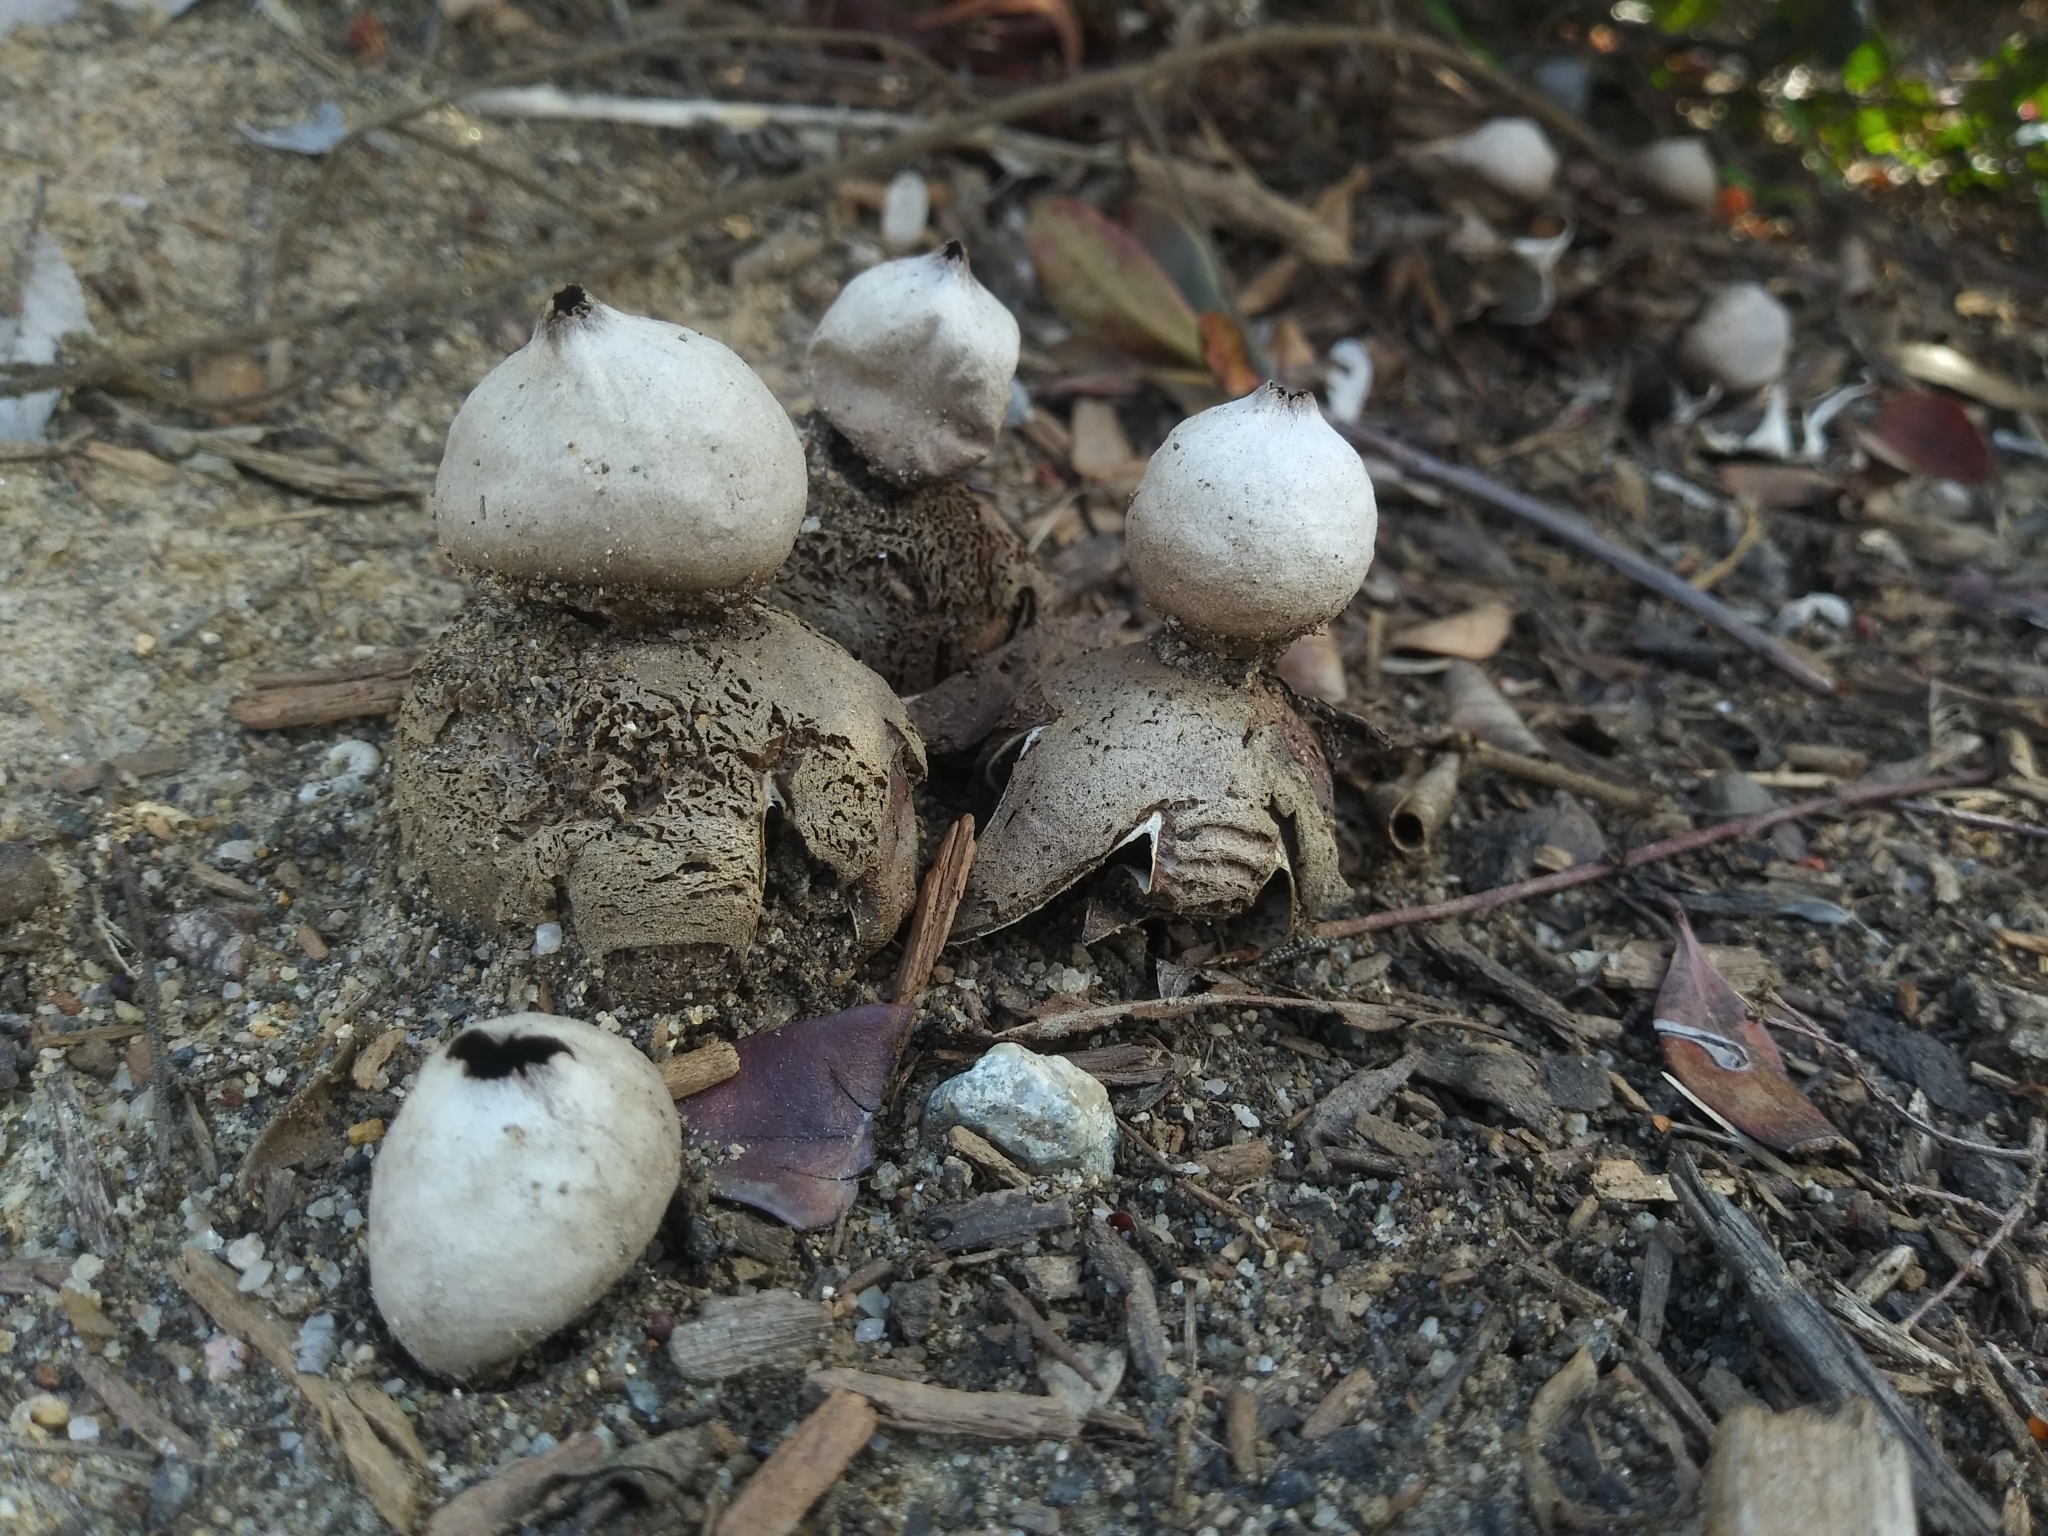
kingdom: Fungi
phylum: Basidiomycota
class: Agaricomycetes
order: Boletales
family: Diplocystidiaceae
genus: Astraeus
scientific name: Astraeus hygrometricus
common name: Barometer earthstar
